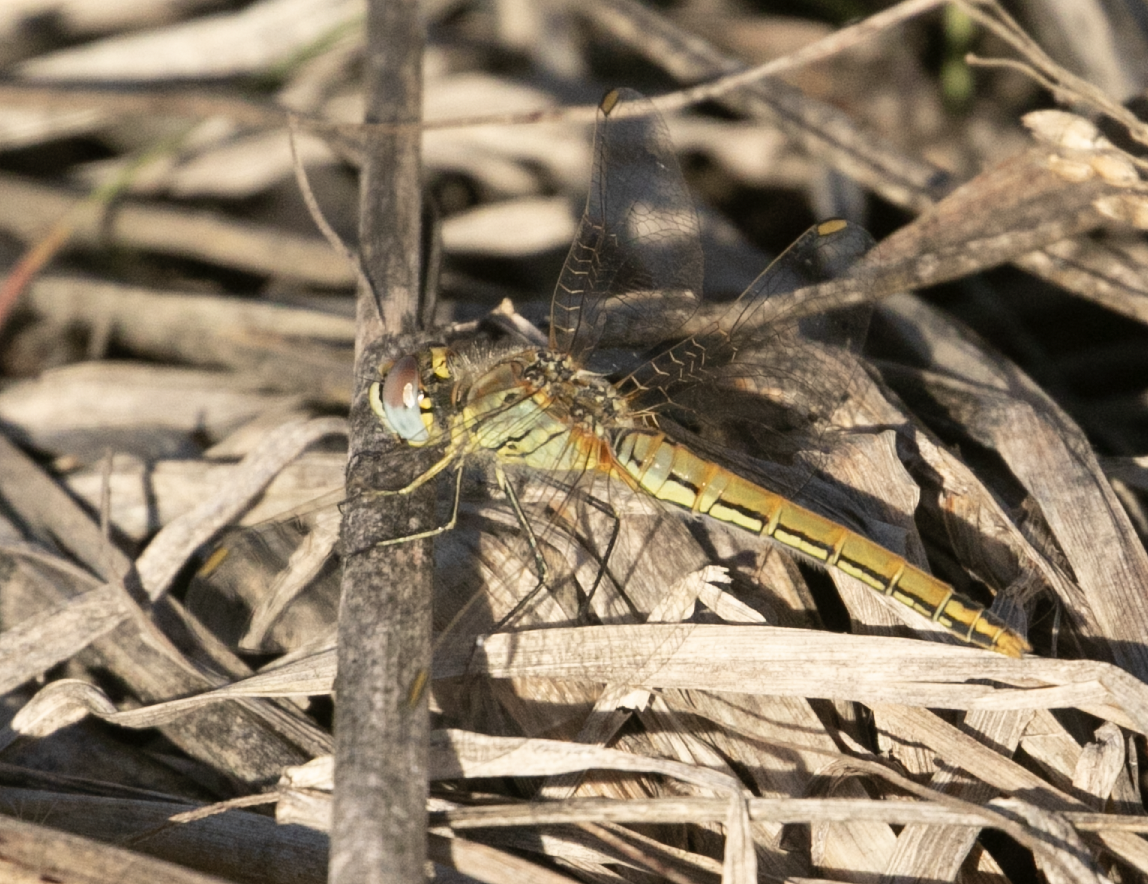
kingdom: Animalia
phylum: Arthropoda
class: Insecta
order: Odonata
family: Libellulidae
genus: Sympetrum
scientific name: Sympetrum fonscolombii
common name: Red-veined darter
